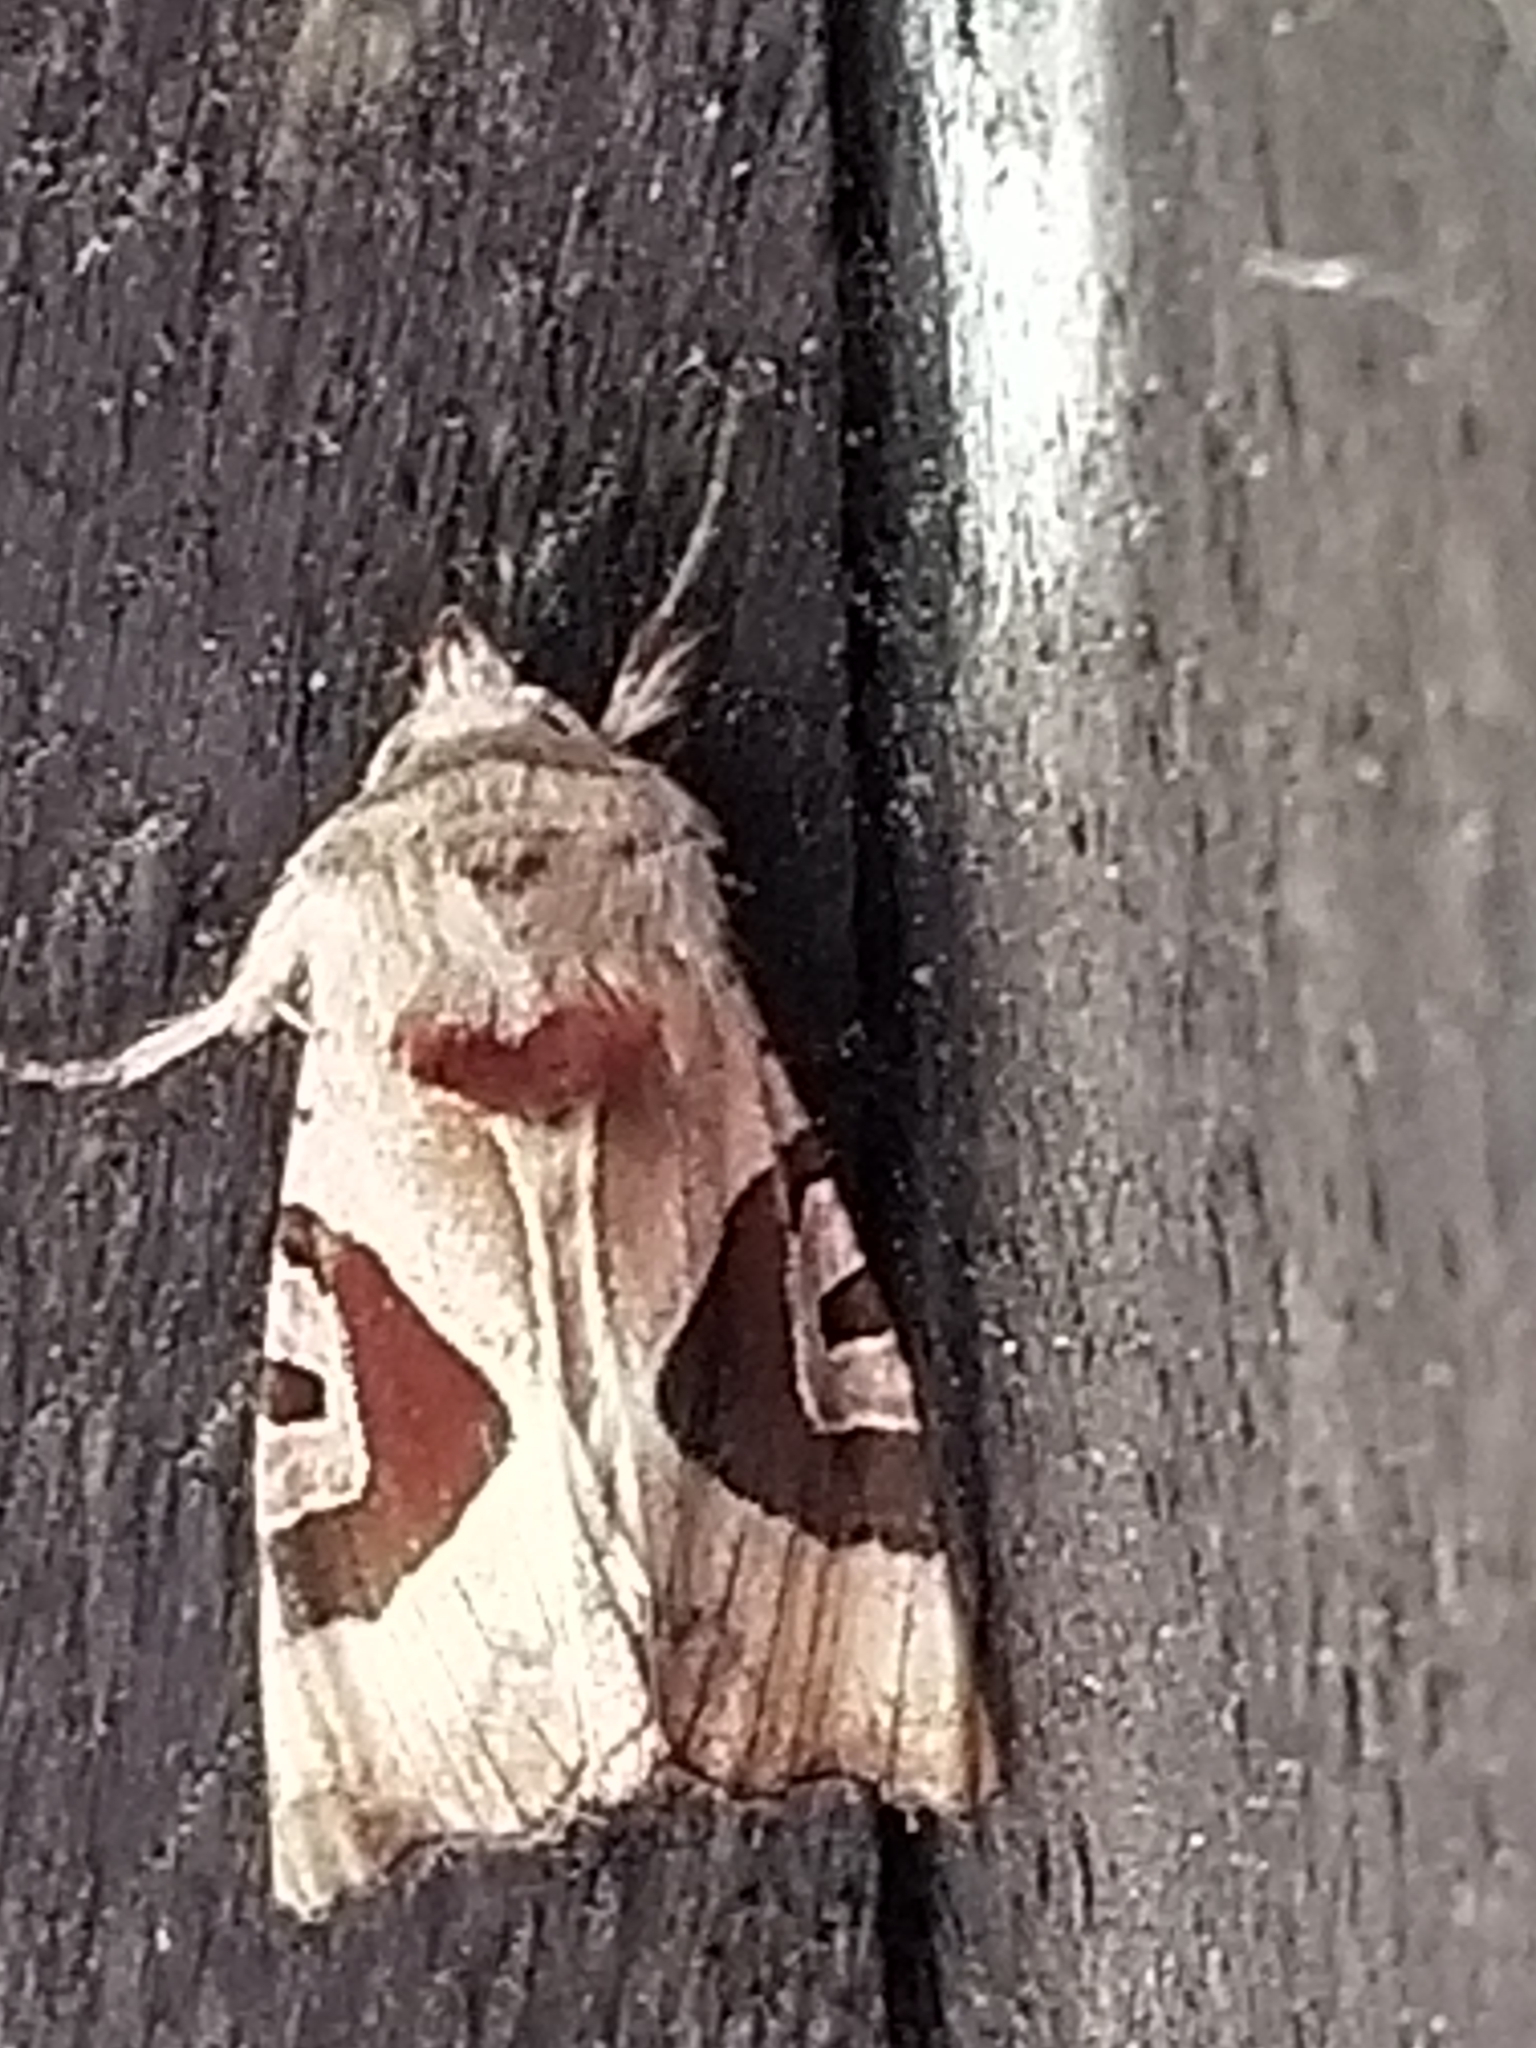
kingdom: Animalia
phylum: Arthropoda
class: Insecta
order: Lepidoptera
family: Noctuidae
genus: Conservula
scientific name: Conservula anodonta
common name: Sharp angle shades
